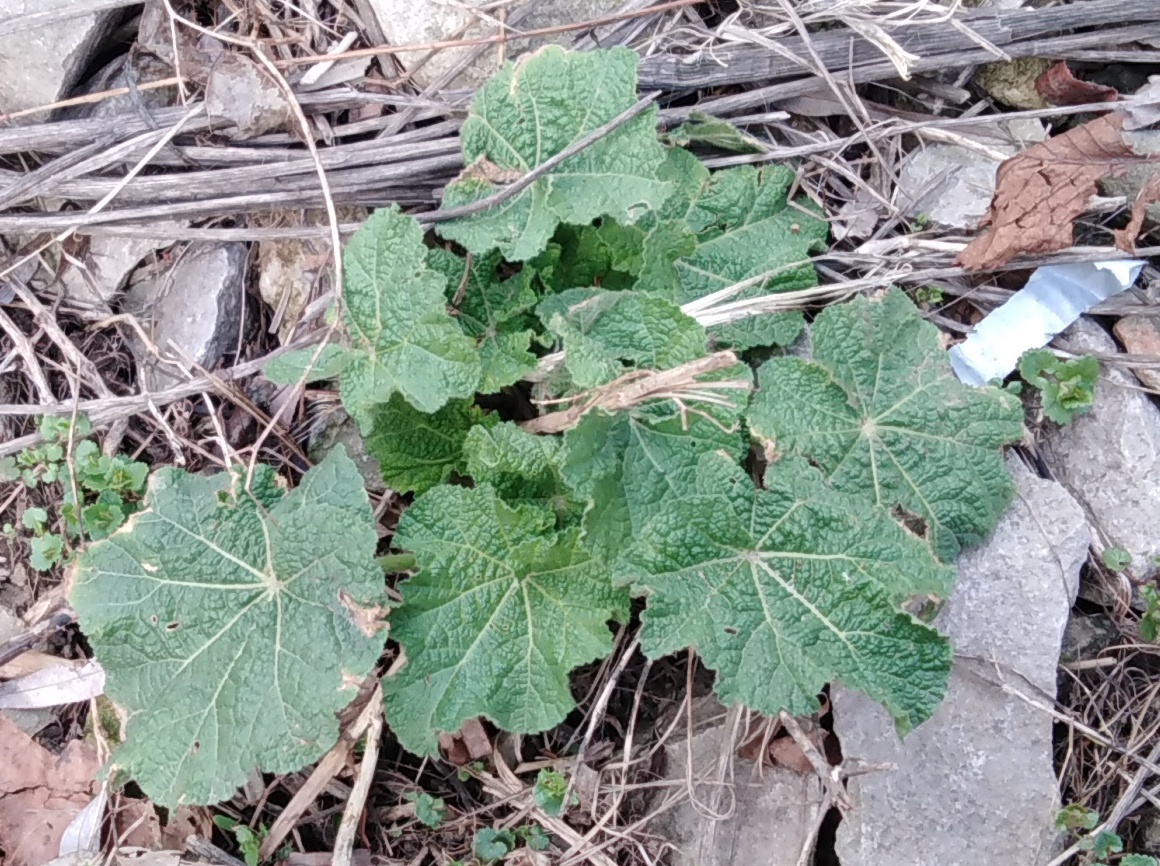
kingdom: Plantae
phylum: Tracheophyta
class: Magnoliopsida
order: Malvales
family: Malvaceae
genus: Alcea
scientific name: Alcea rosea
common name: Hollyhock
